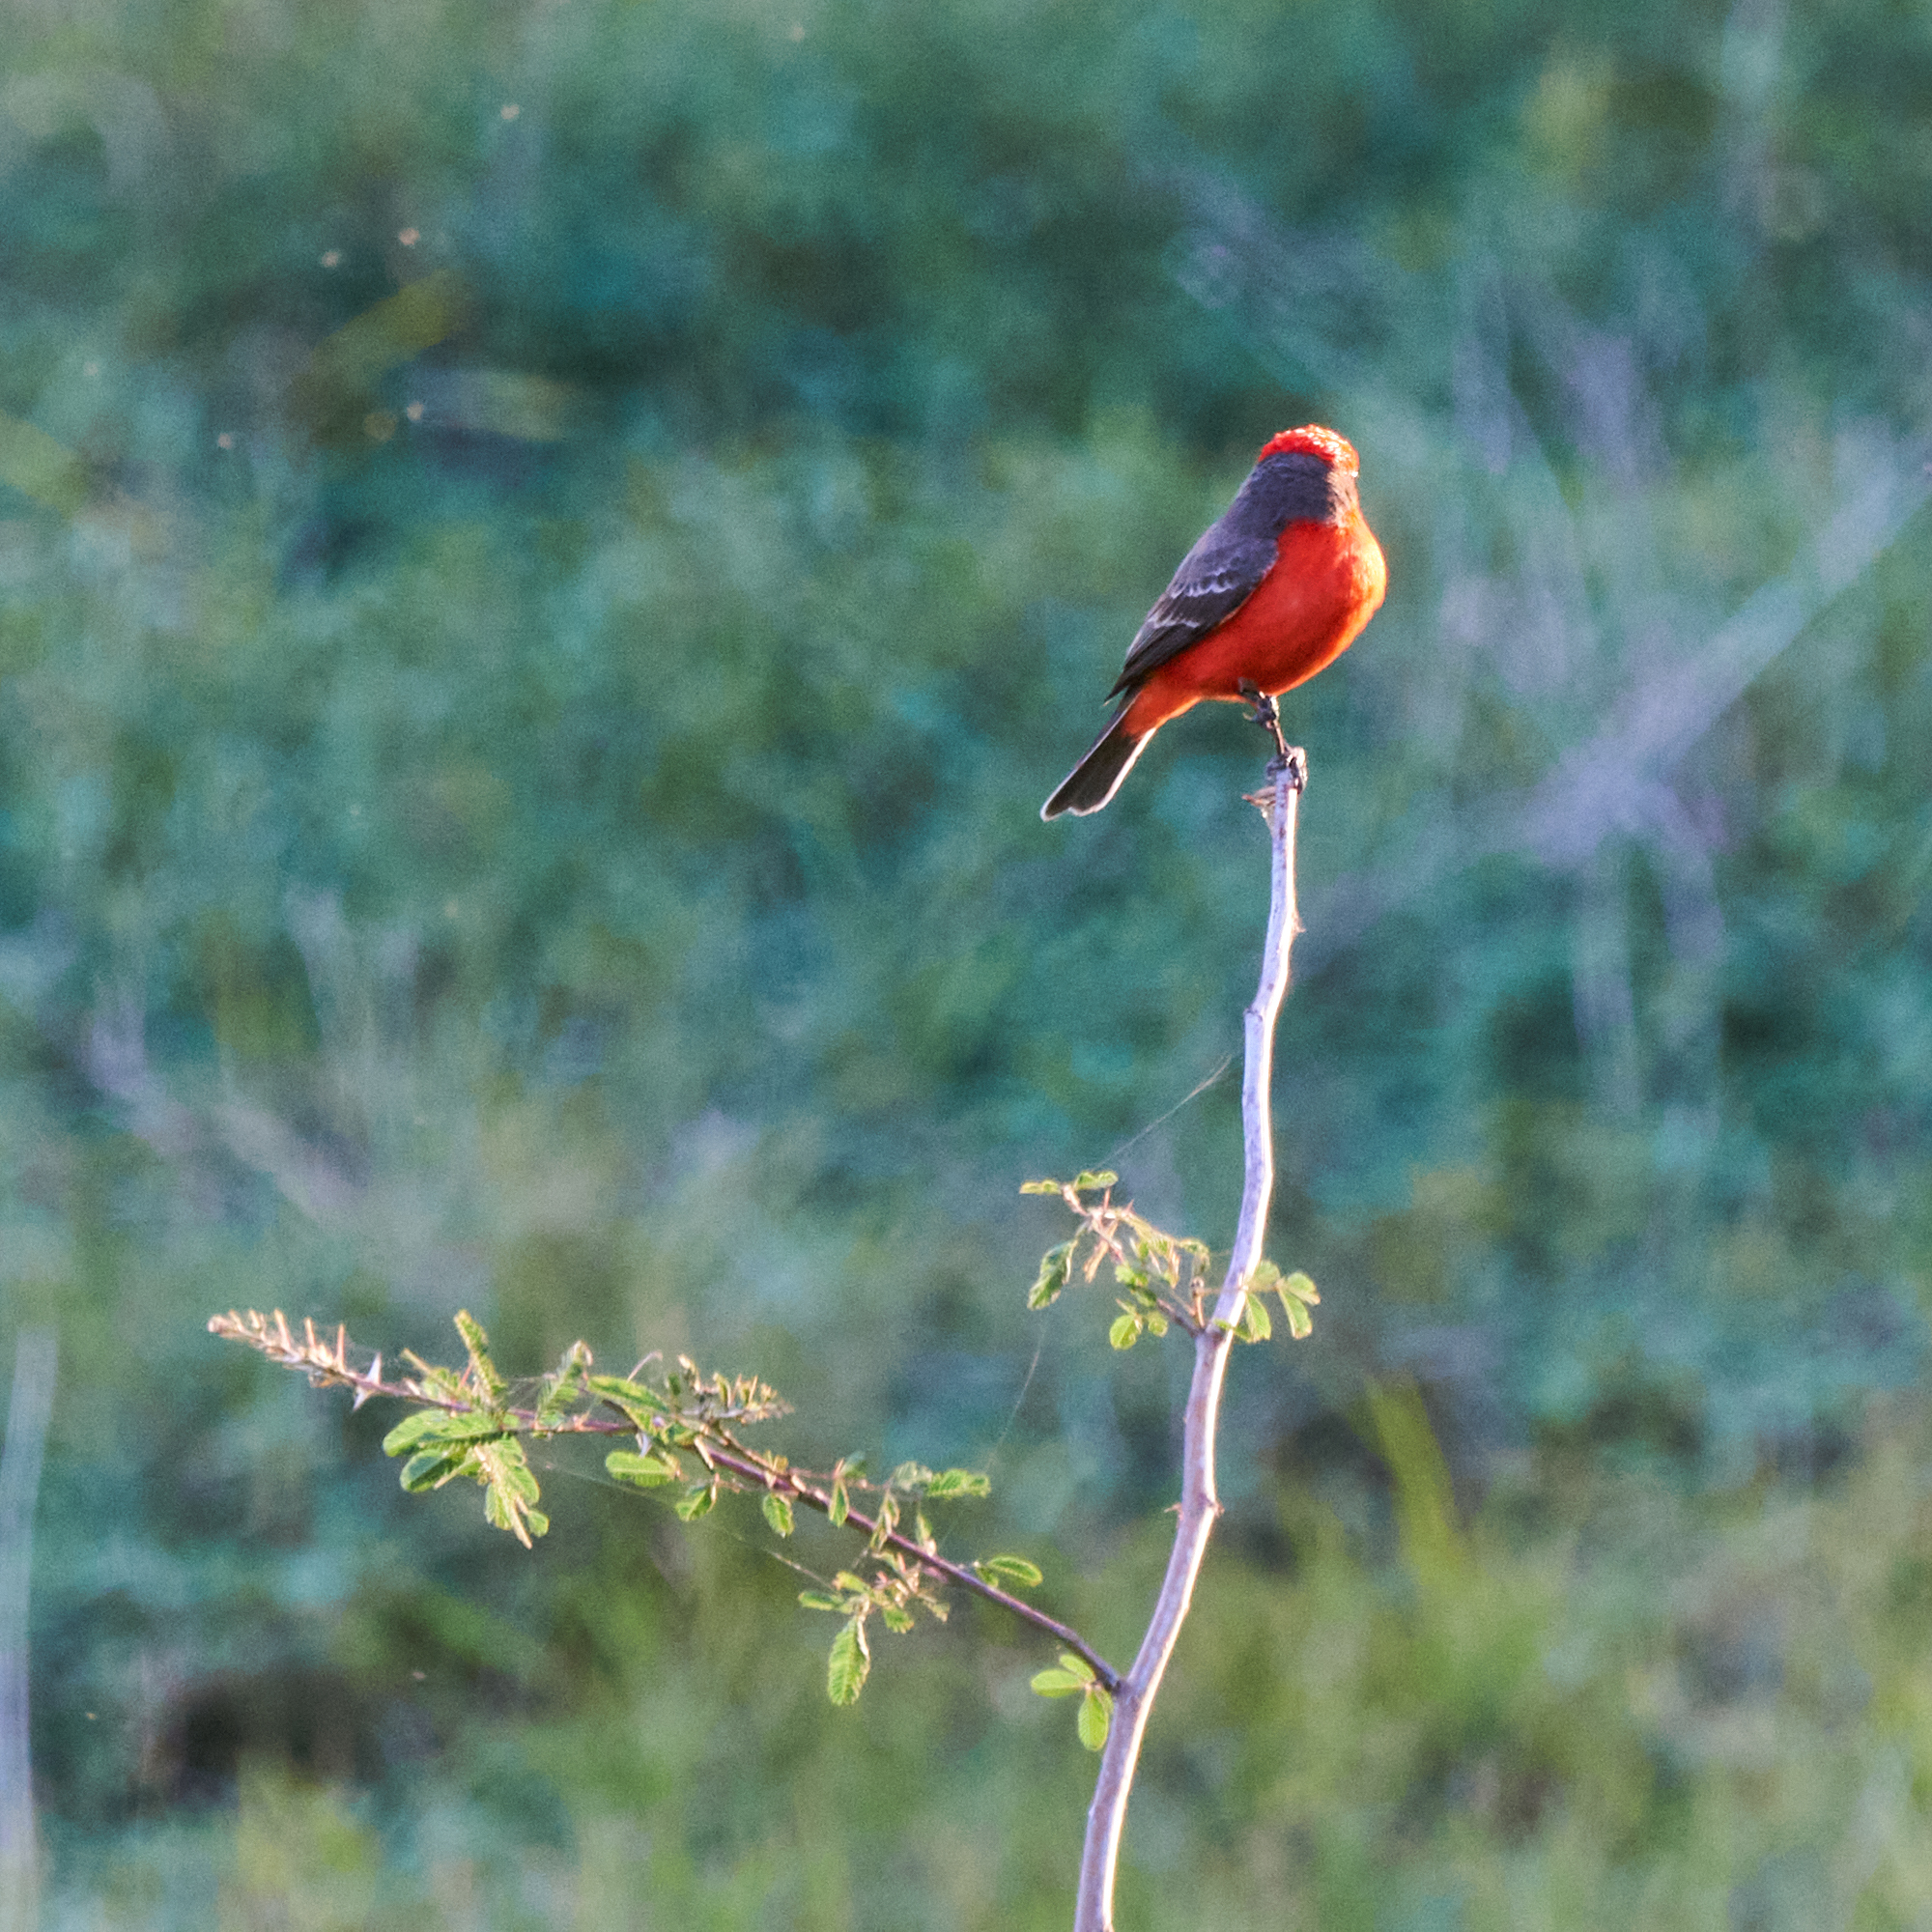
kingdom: Animalia
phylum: Chordata
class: Aves
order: Passeriformes
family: Tyrannidae
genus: Pyrocephalus
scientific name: Pyrocephalus rubinus
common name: Vermilion flycatcher
